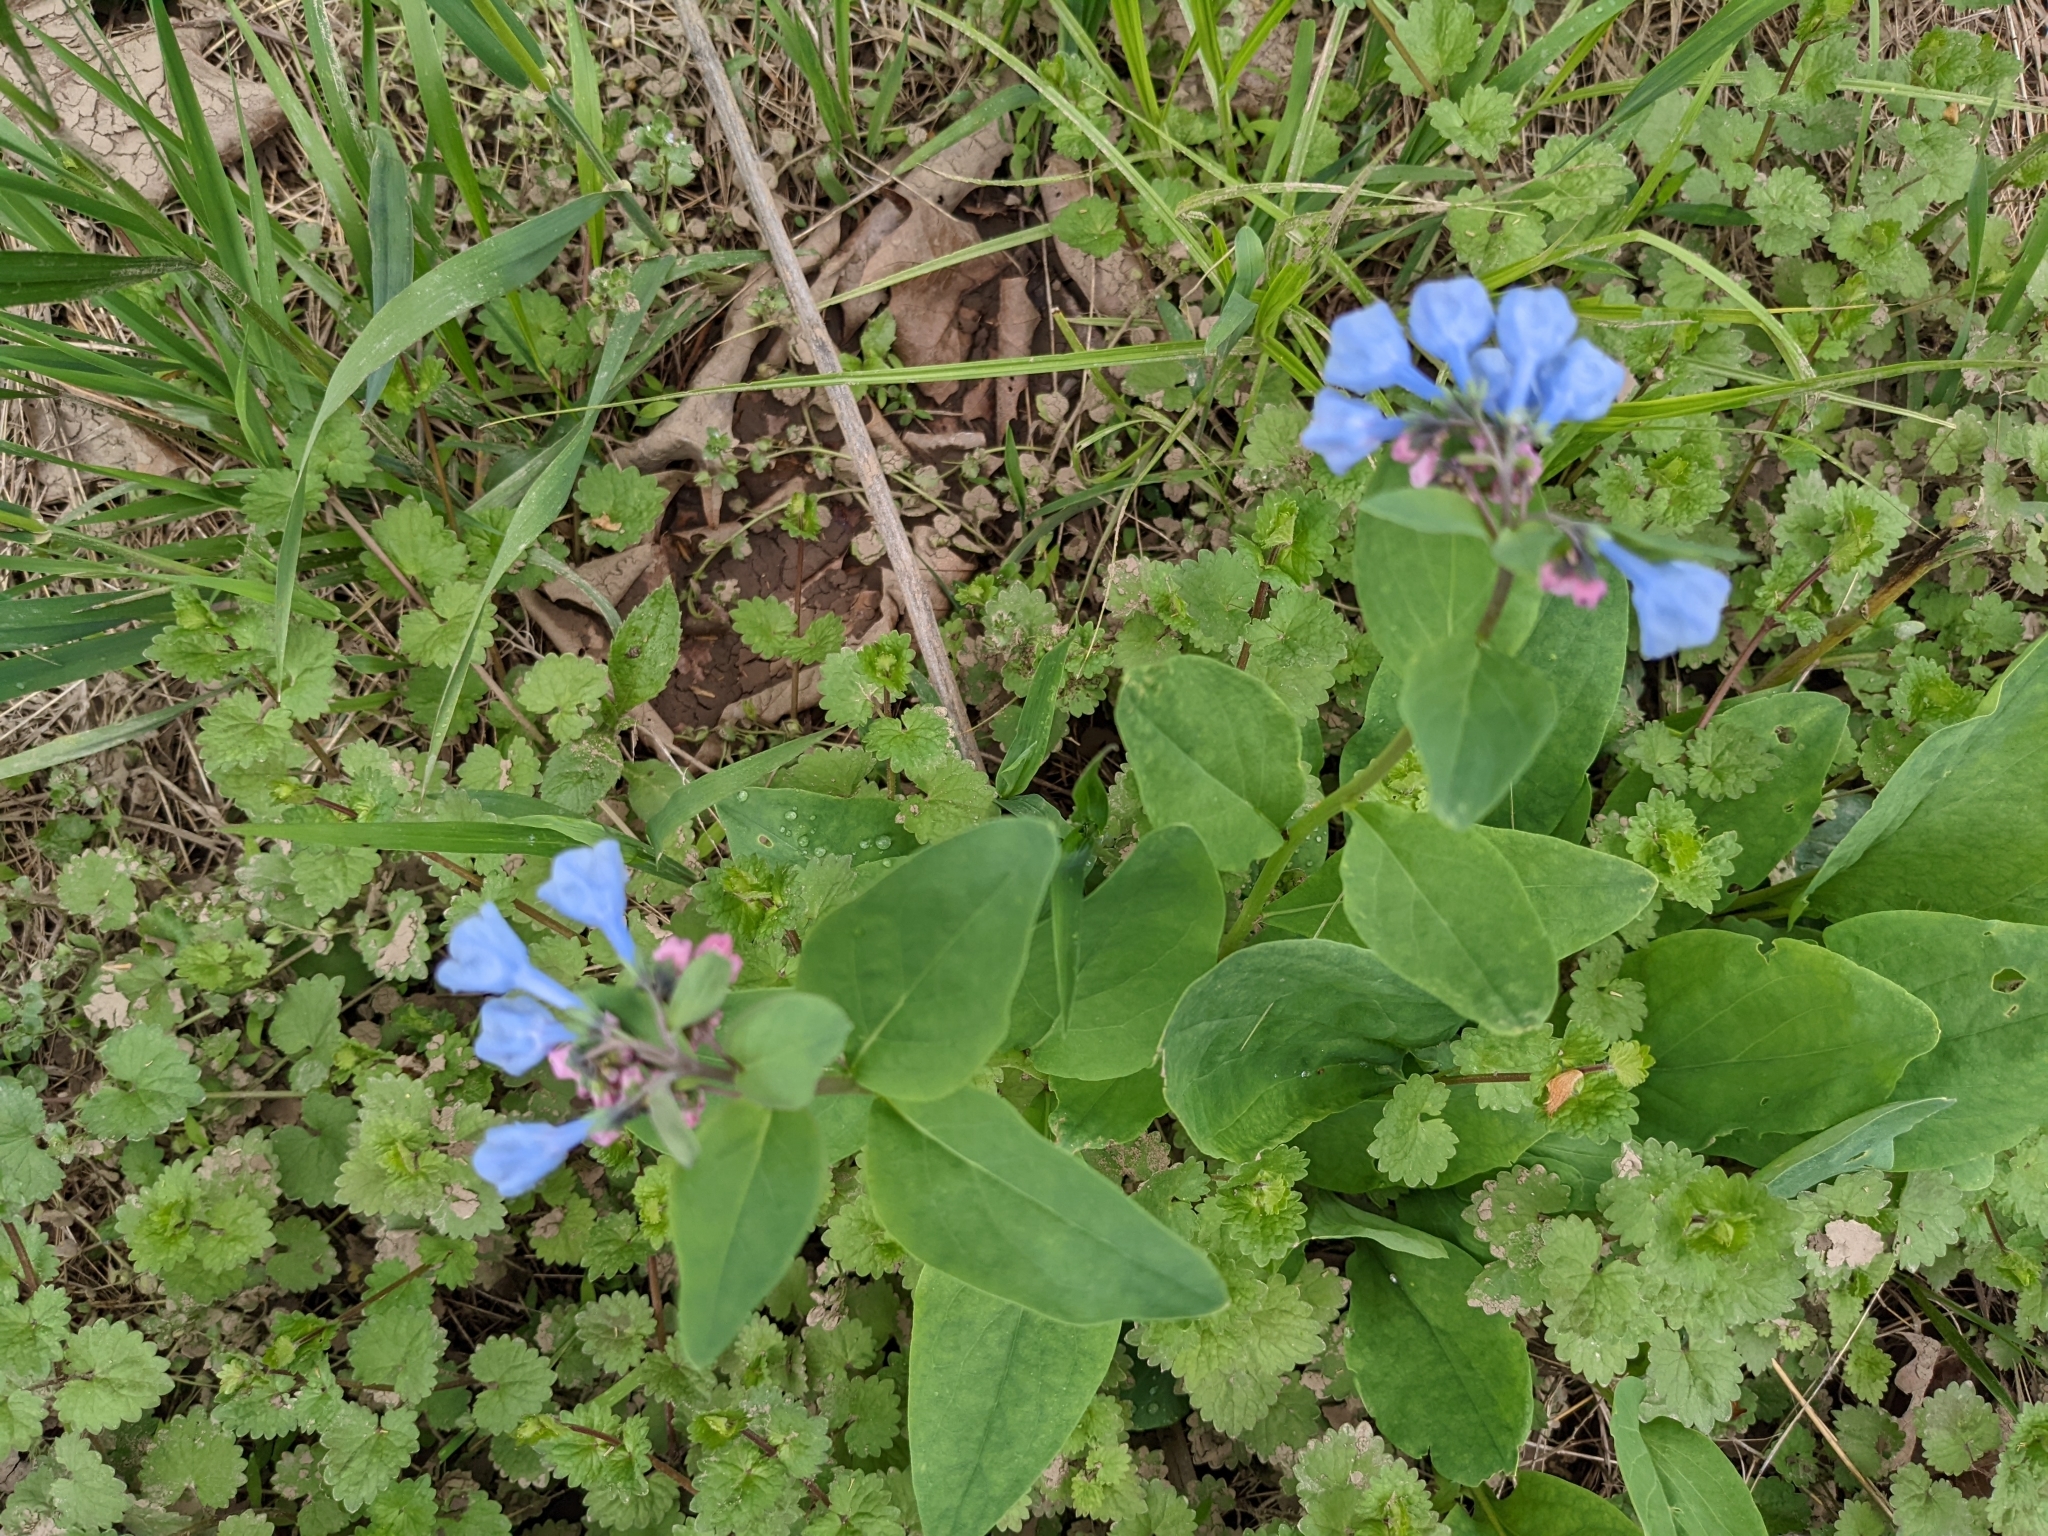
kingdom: Plantae
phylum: Tracheophyta
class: Magnoliopsida
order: Boraginales
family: Boraginaceae
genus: Mertensia
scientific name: Mertensia virginica
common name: Virginia bluebells
